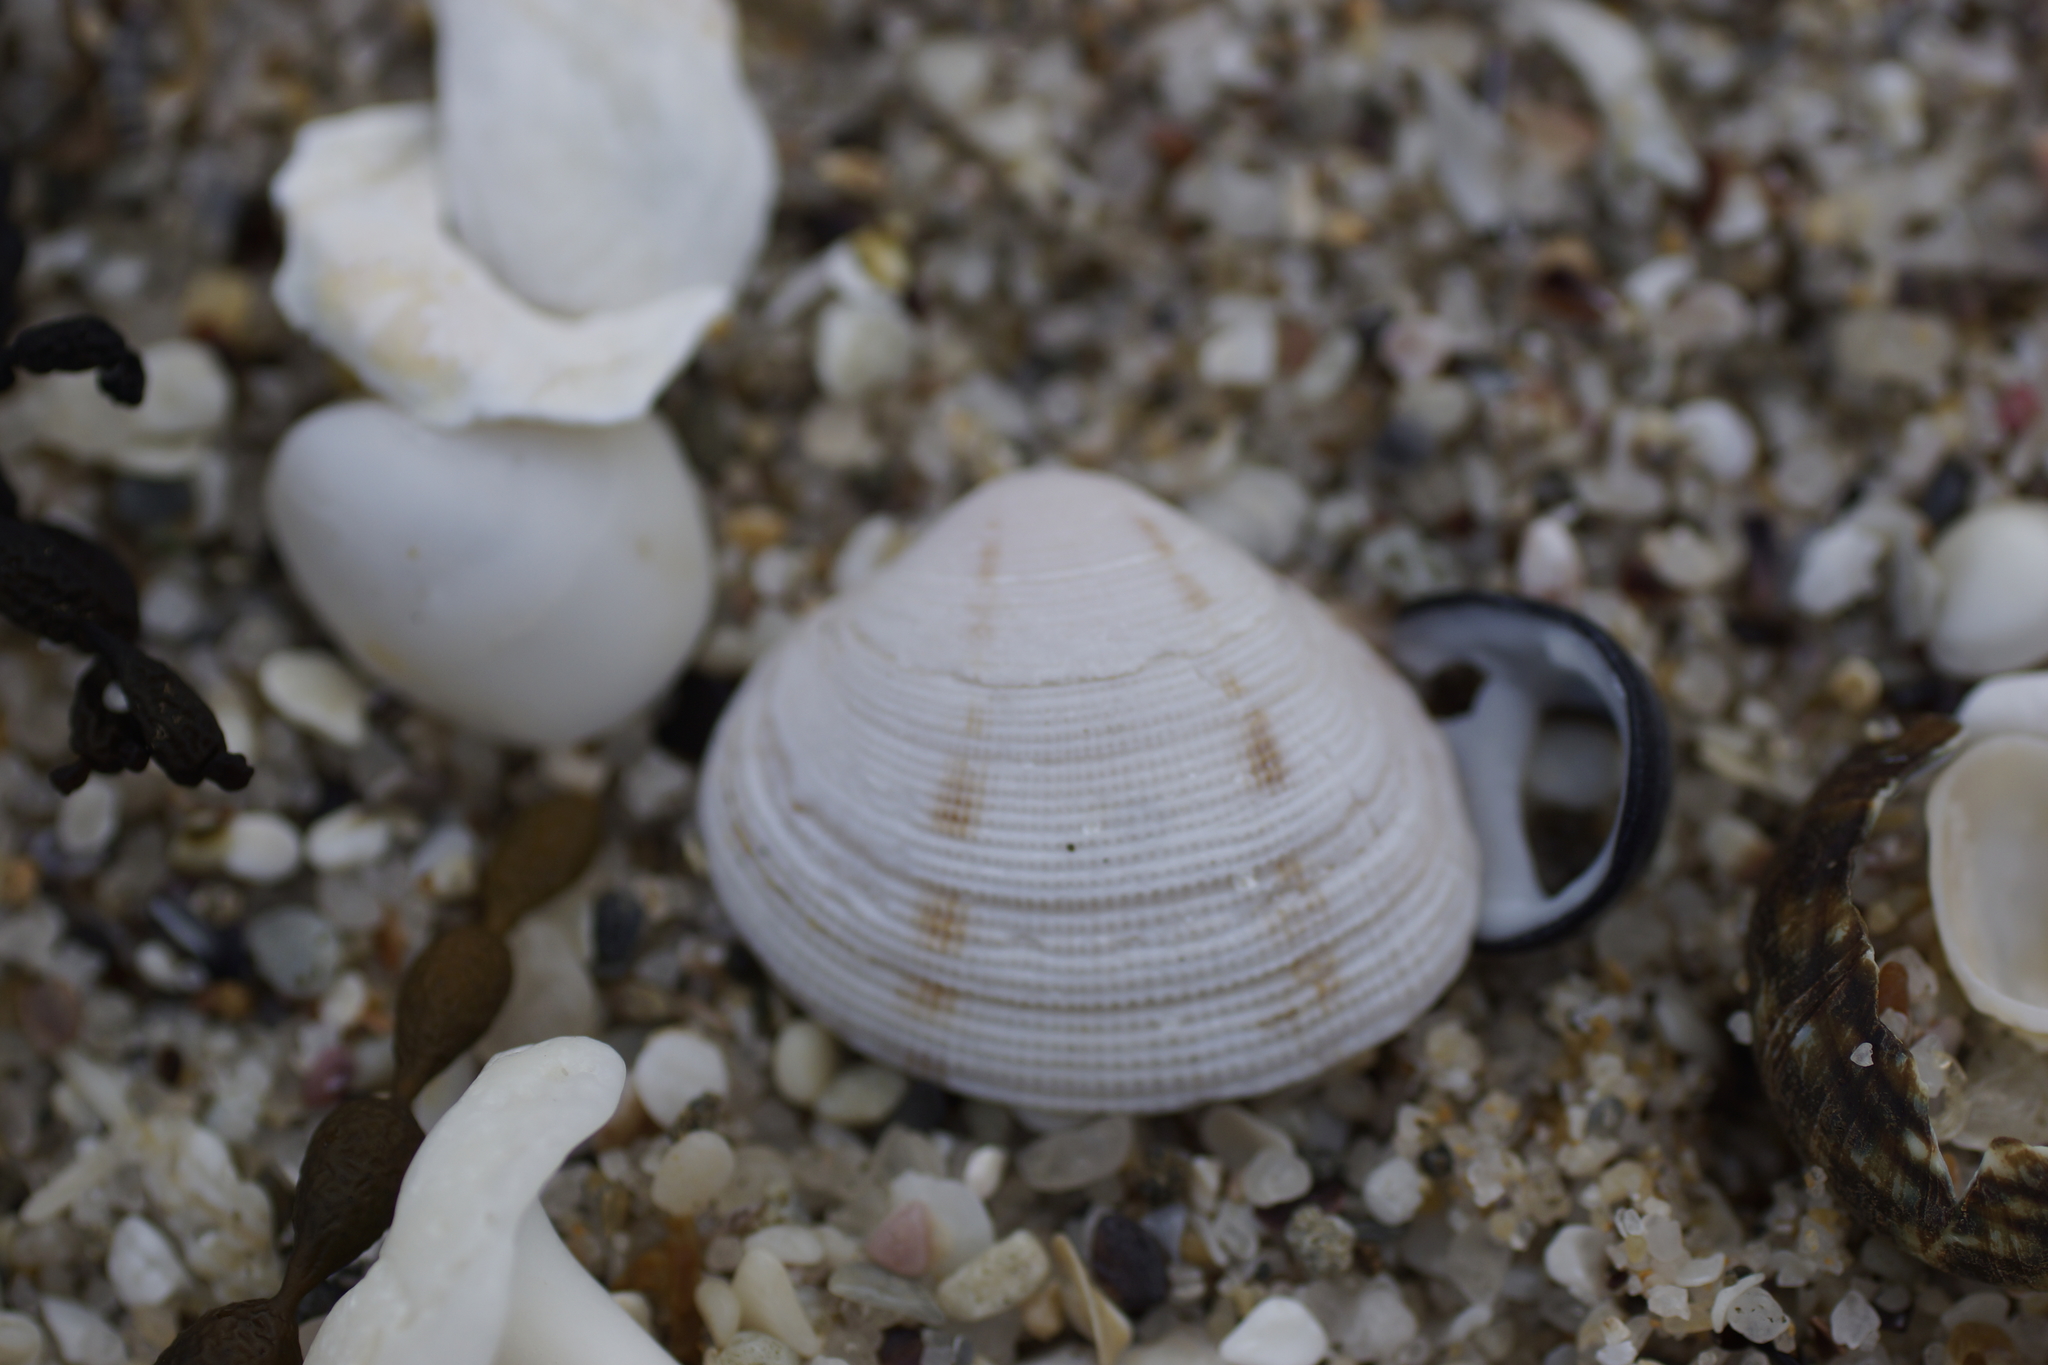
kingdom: Animalia
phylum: Mollusca
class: Bivalvia
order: Venerida
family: Veneridae
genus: Tawera
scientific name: Tawera lagopus
